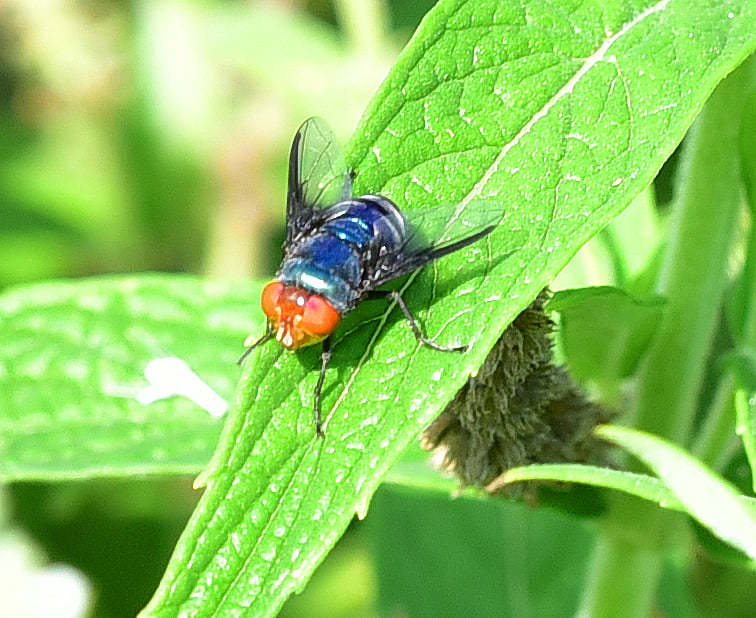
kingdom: Animalia
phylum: Arthropoda
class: Insecta
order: Diptera
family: Calliphoridae
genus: Chrysomya
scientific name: Chrysomya marginalis
